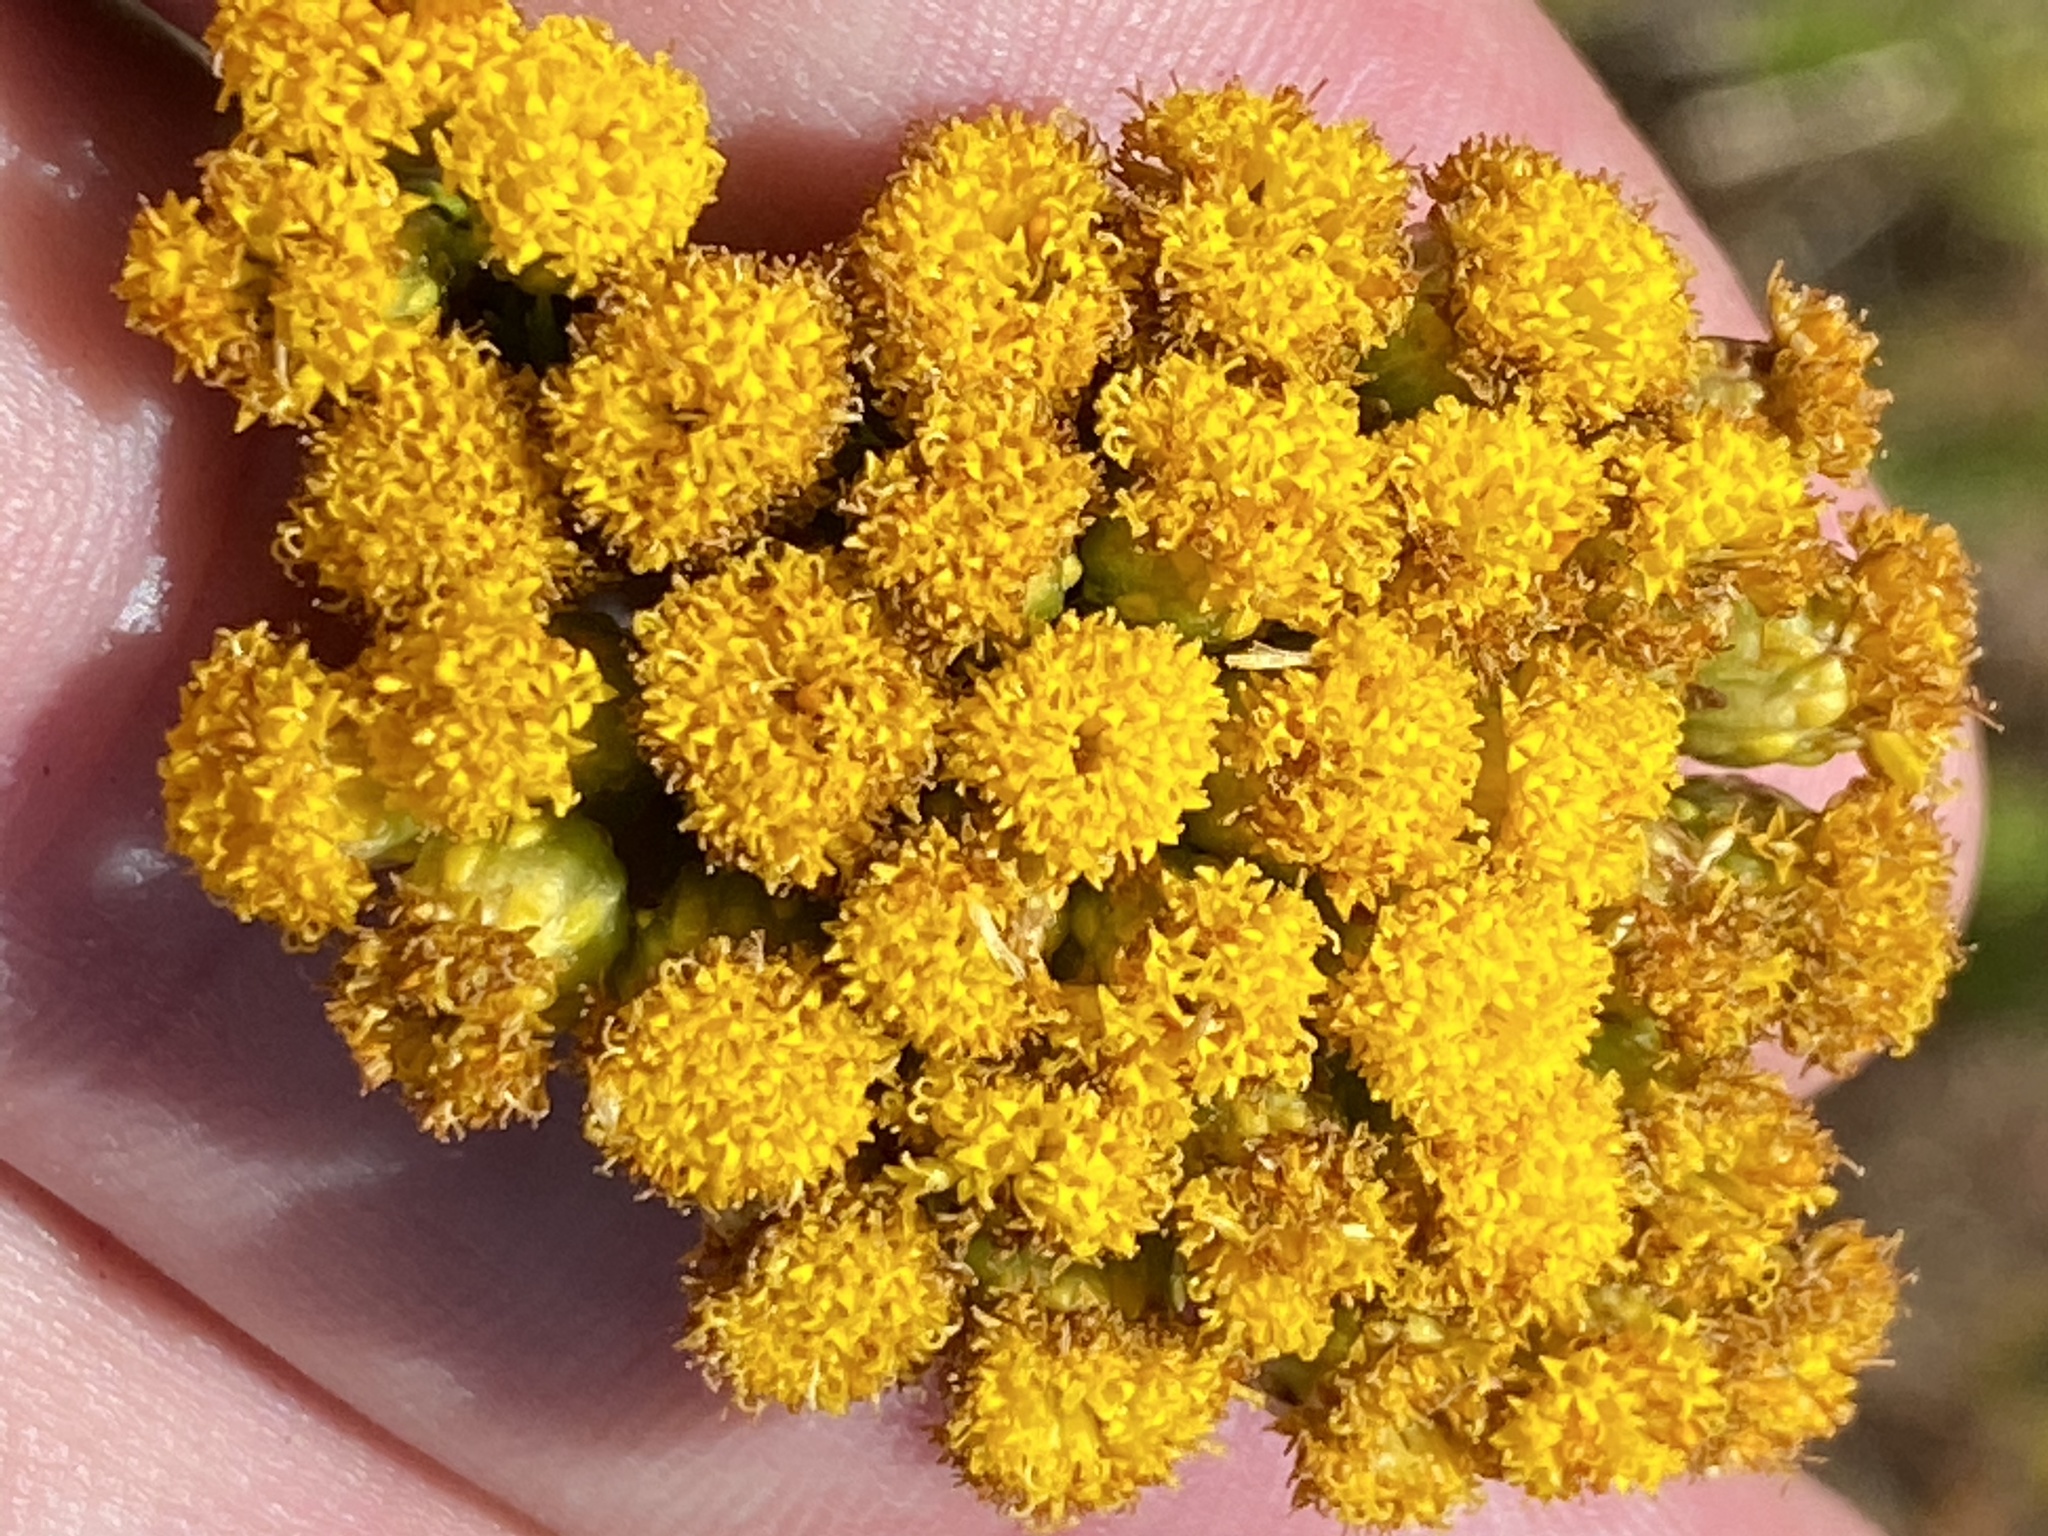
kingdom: Plantae
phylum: Tracheophyta
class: Magnoliopsida
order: Asterales
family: Asteraceae
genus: Athanasia
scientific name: Athanasia trifurcata
